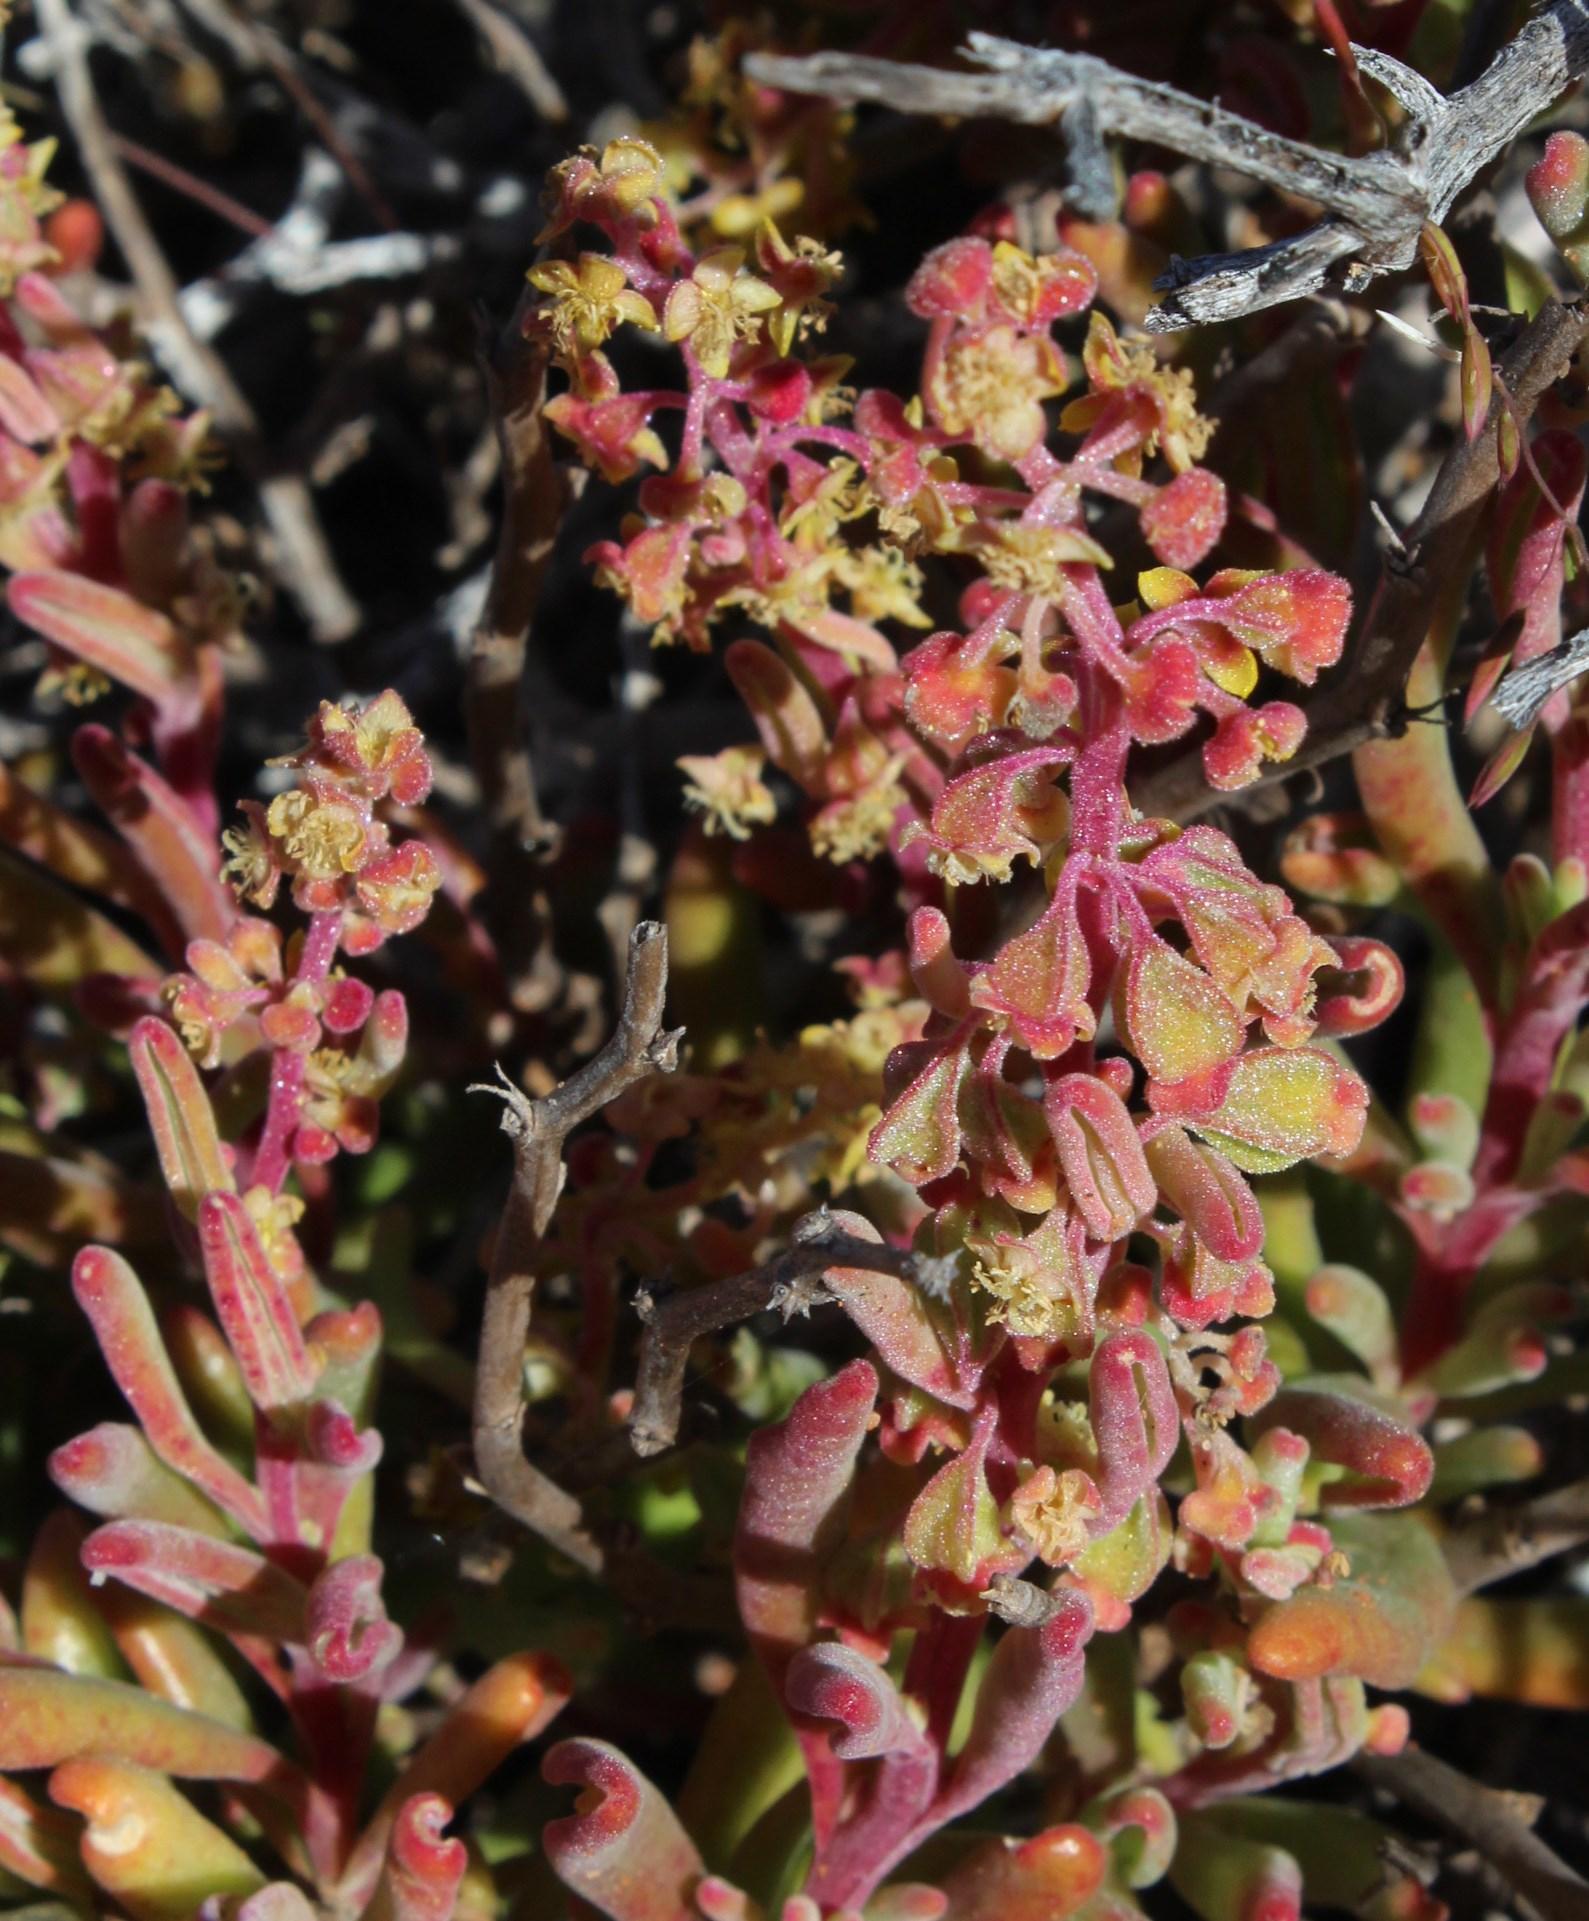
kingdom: Plantae
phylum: Tracheophyta
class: Magnoliopsida
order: Caryophyllales
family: Aizoaceae
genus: Tetragonia
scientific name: Tetragonia fruticosa
